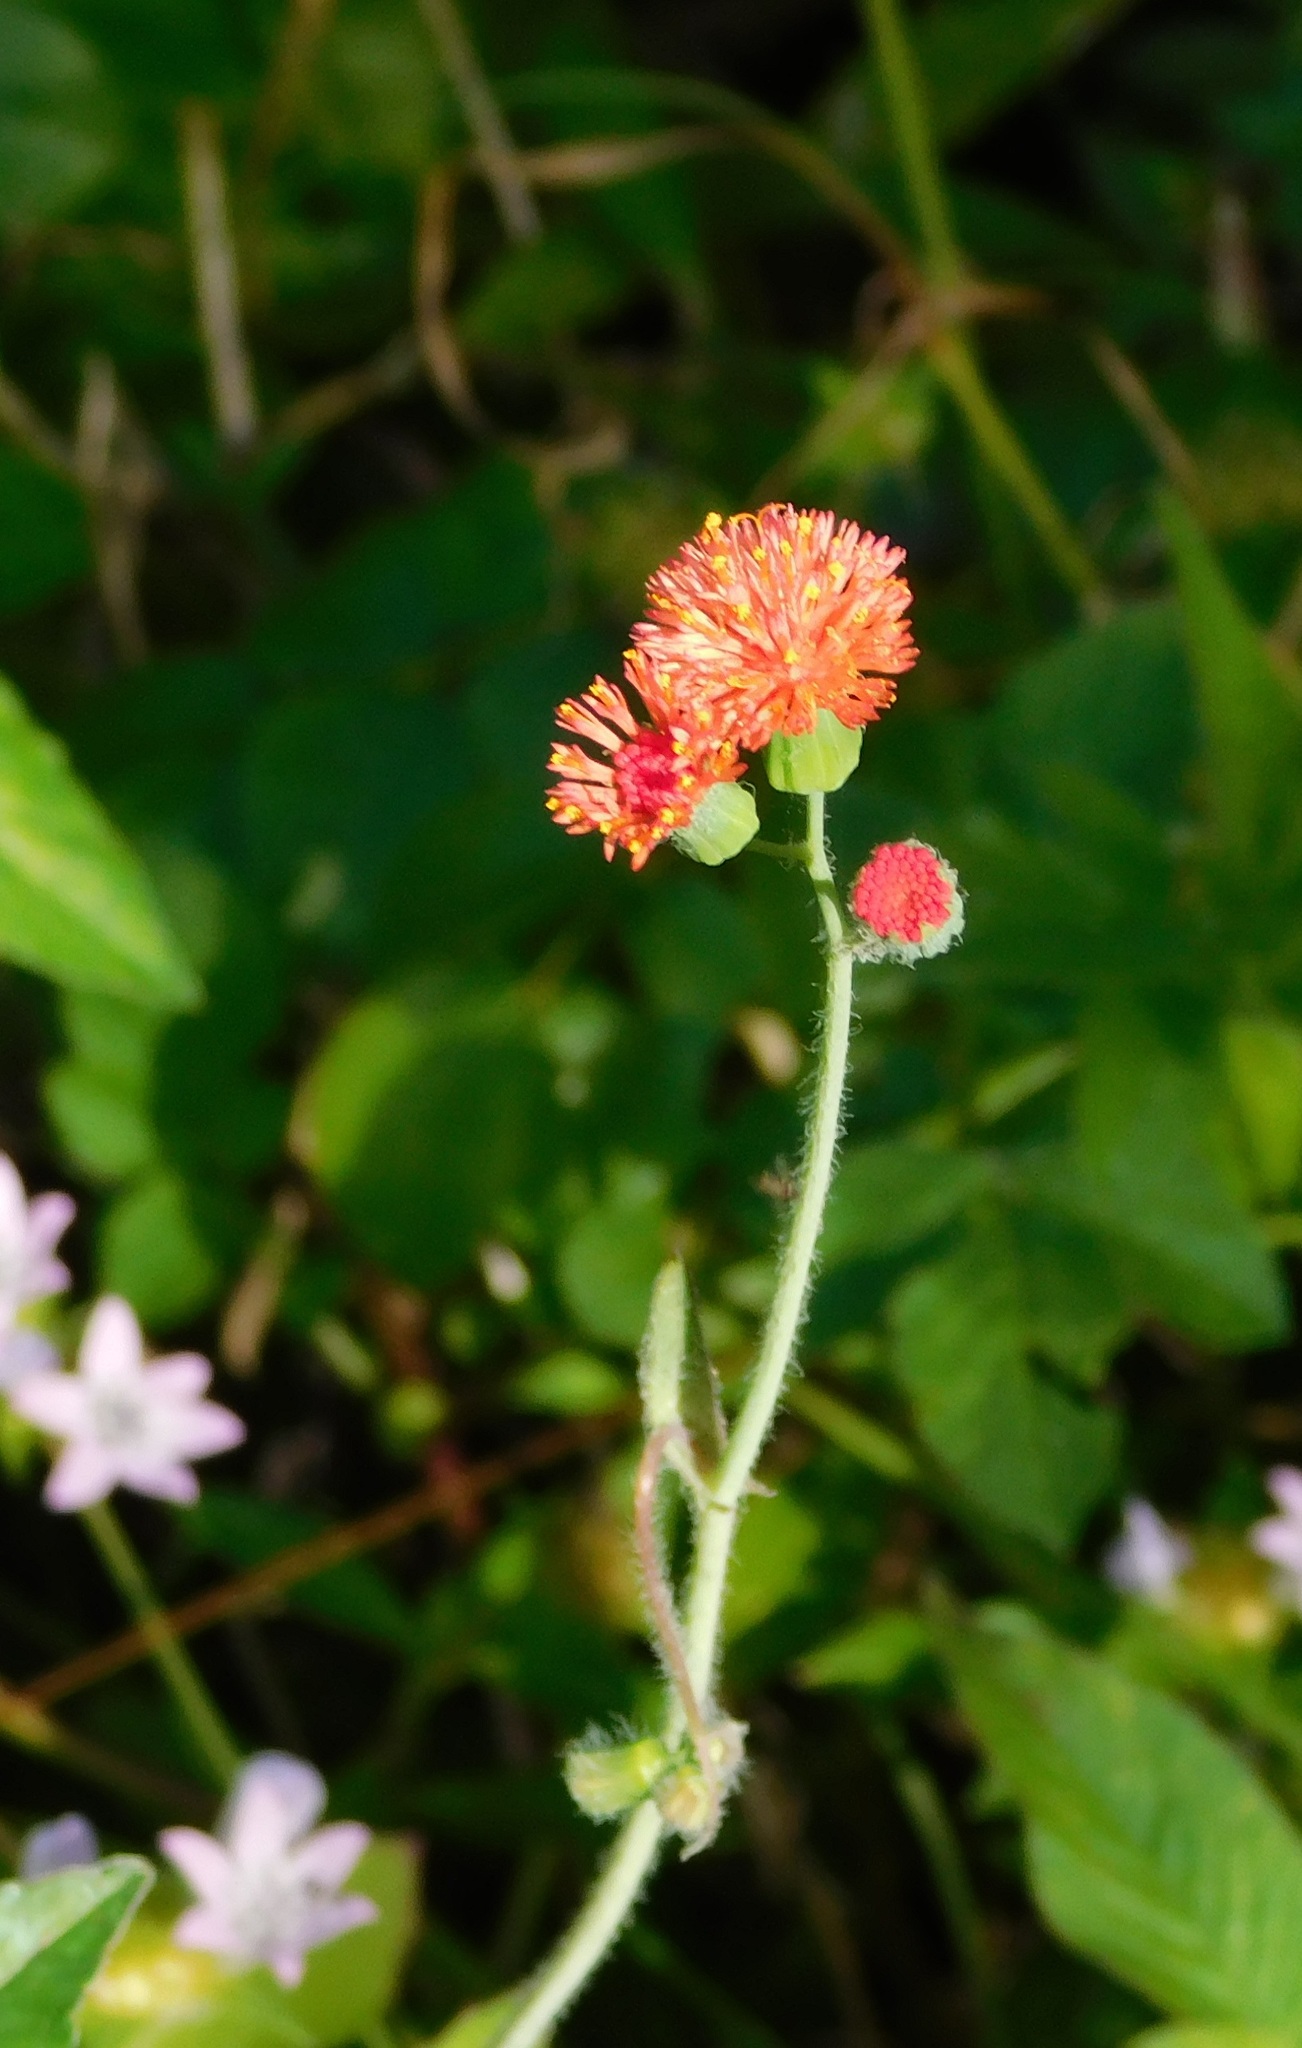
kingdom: Plantae
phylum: Tracheophyta
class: Magnoliopsida
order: Asterales
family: Asteraceae
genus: Emilia
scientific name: Emilia fosbergii
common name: Florida tasselflower
